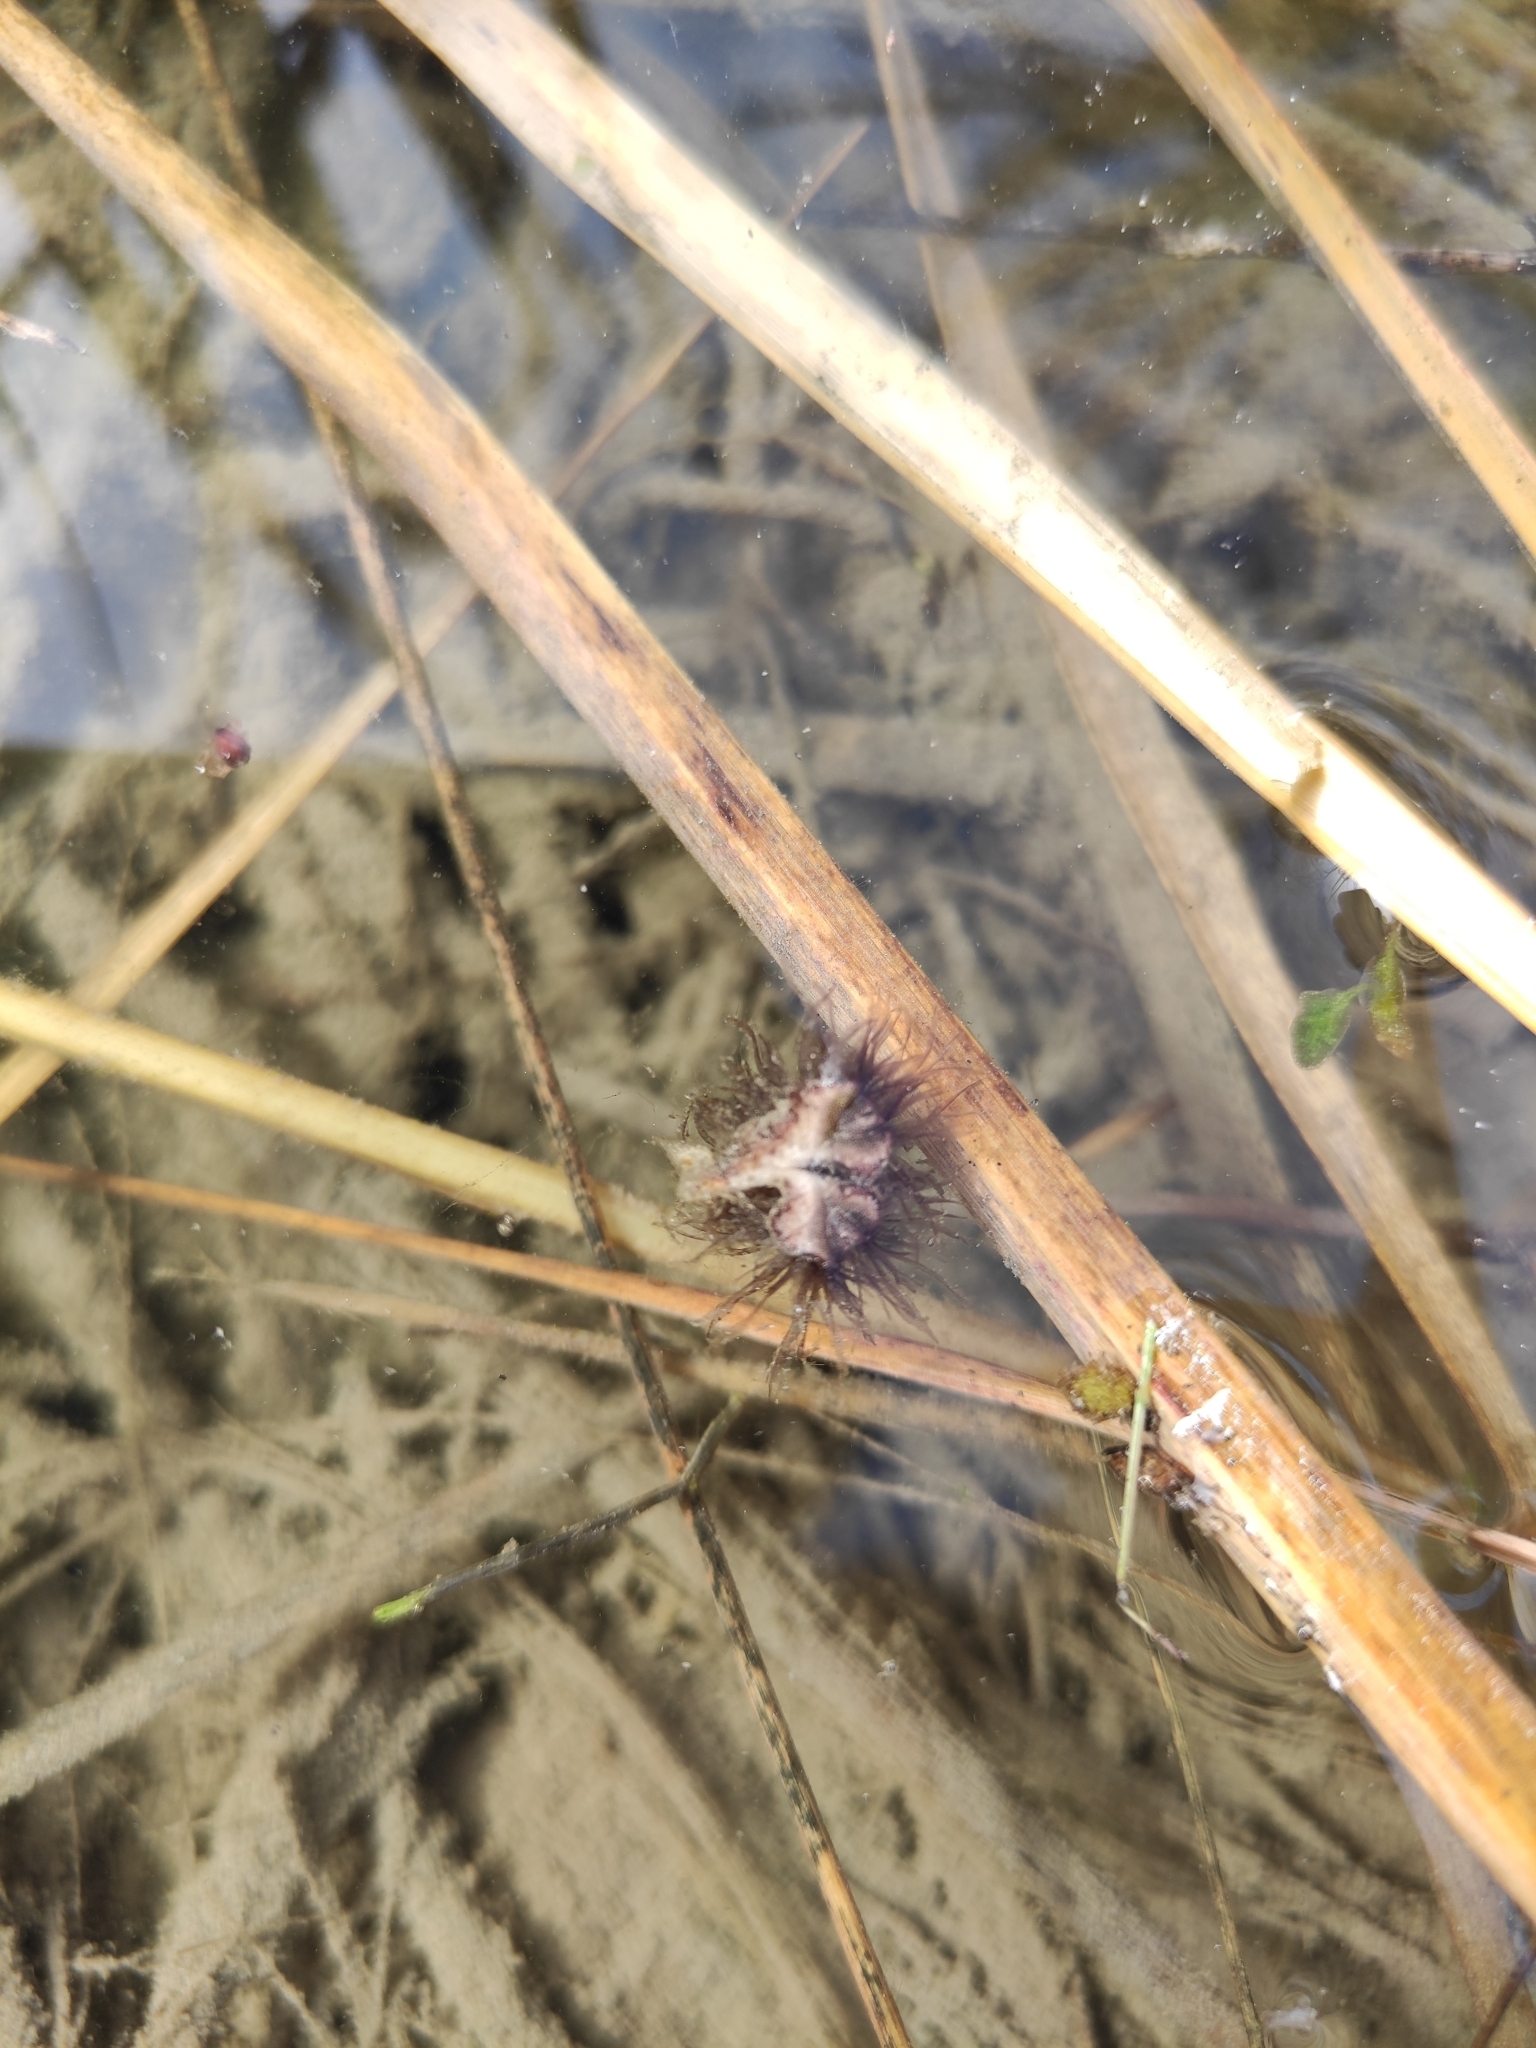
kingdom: Plantae
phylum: Marchantiophyta
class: Marchantiopsida
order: Marchantiales
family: Ricciaceae
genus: Ricciocarpos
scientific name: Ricciocarpos natans
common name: Purple-fringed liverwort
